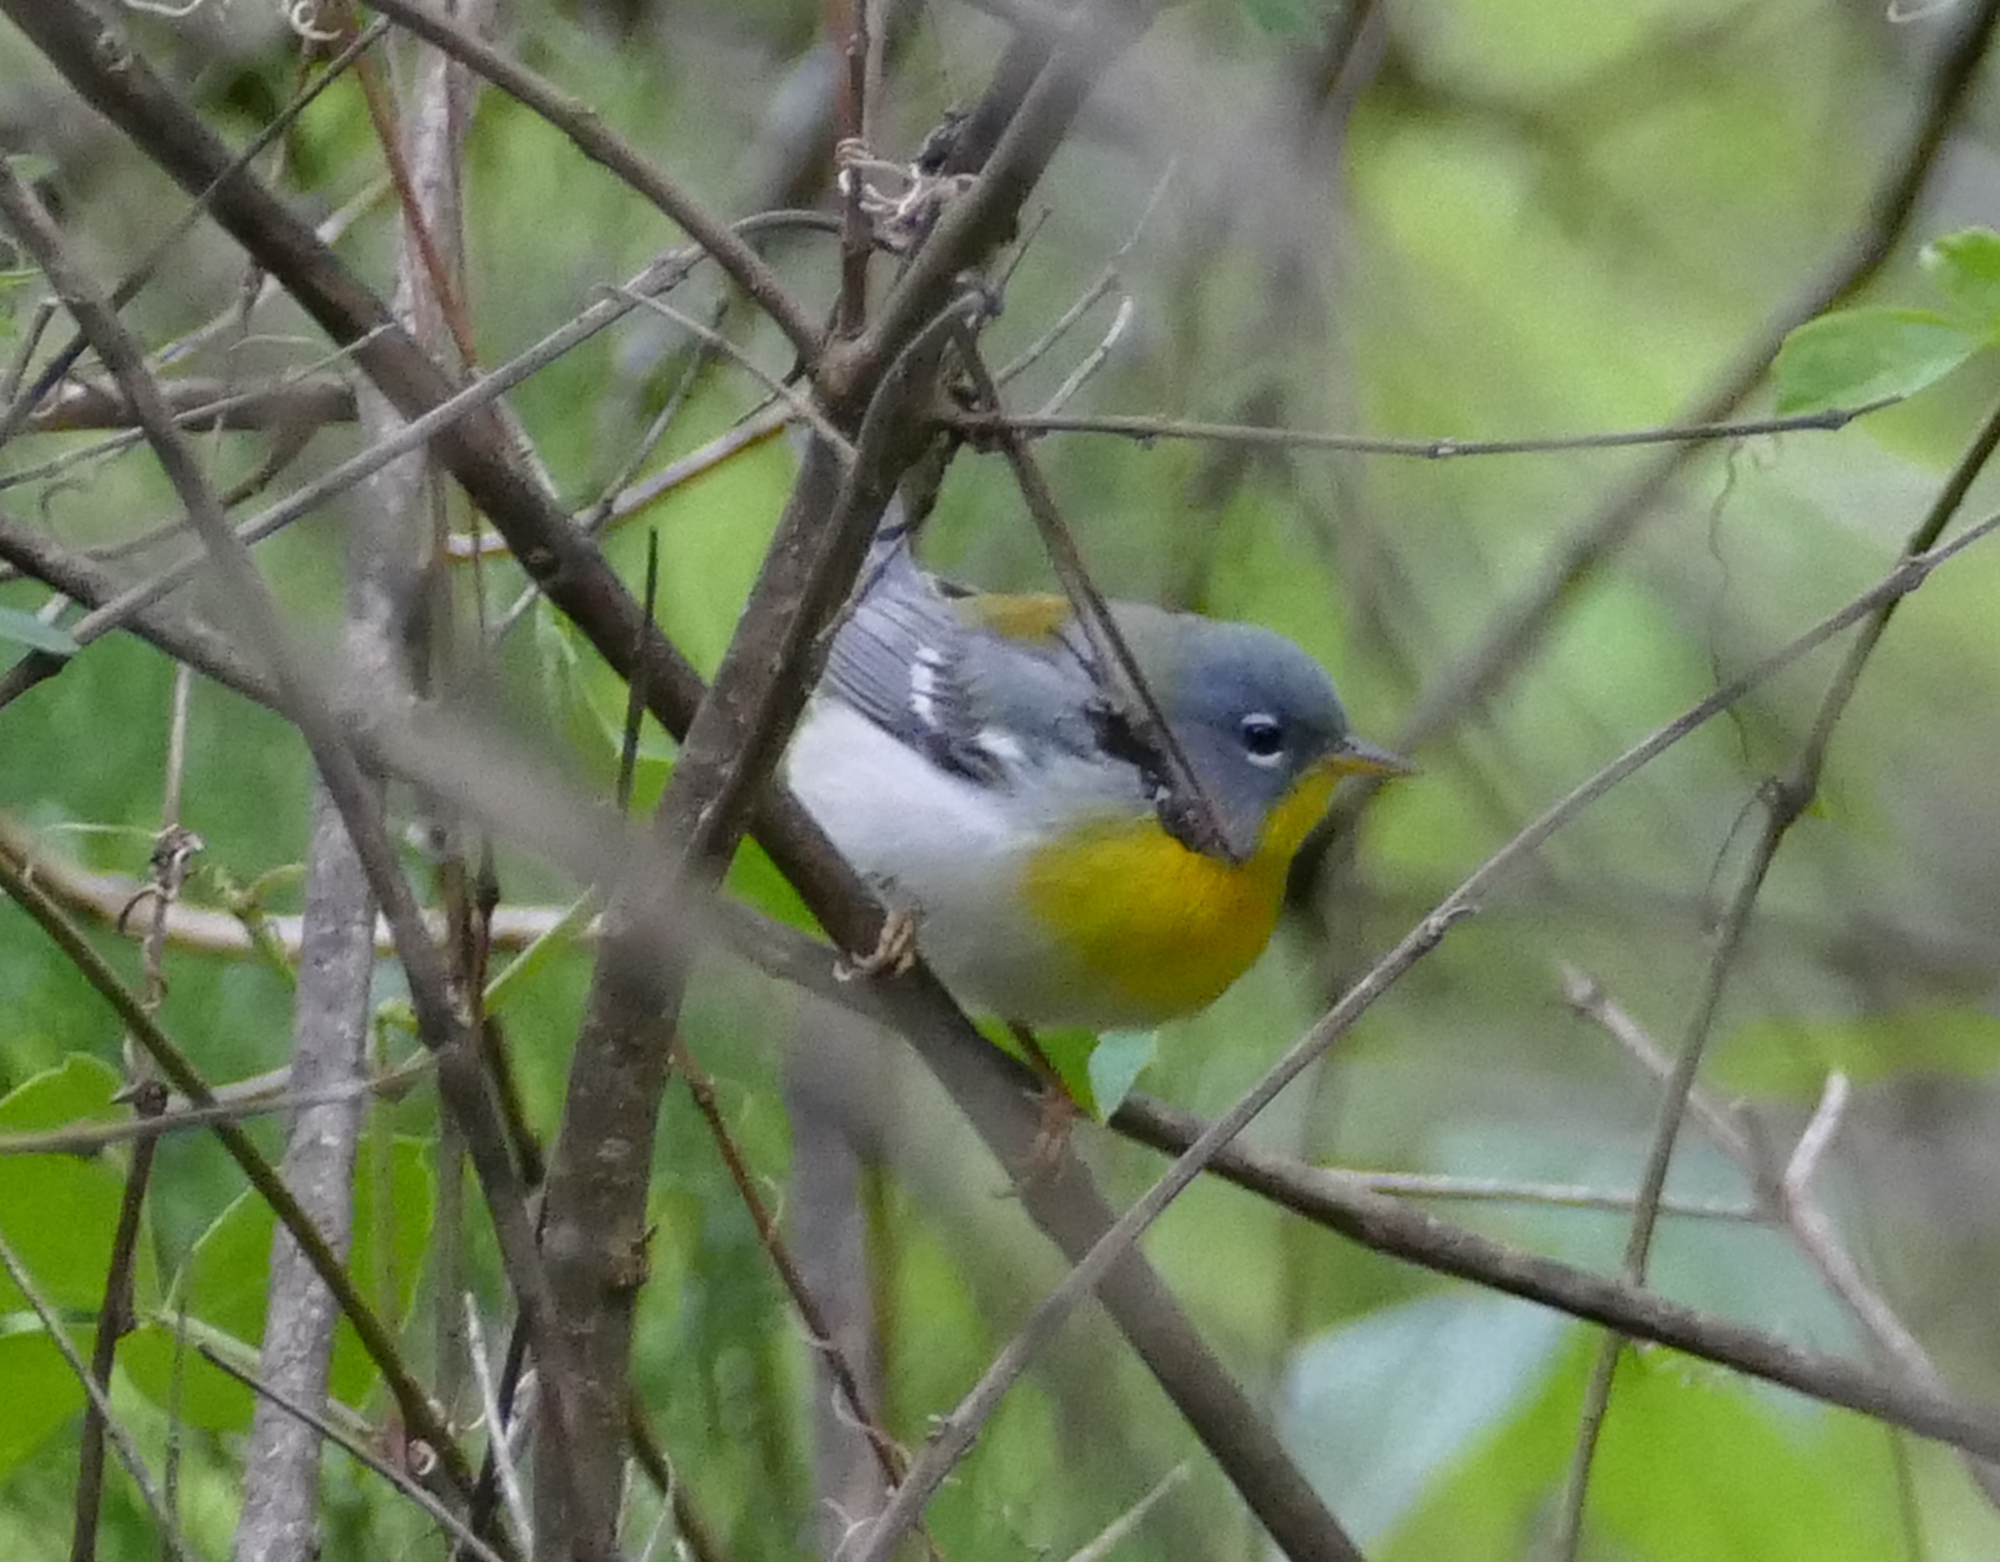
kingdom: Animalia
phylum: Chordata
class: Aves
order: Passeriformes
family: Parulidae
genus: Setophaga
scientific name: Setophaga americana
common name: Northern parula
